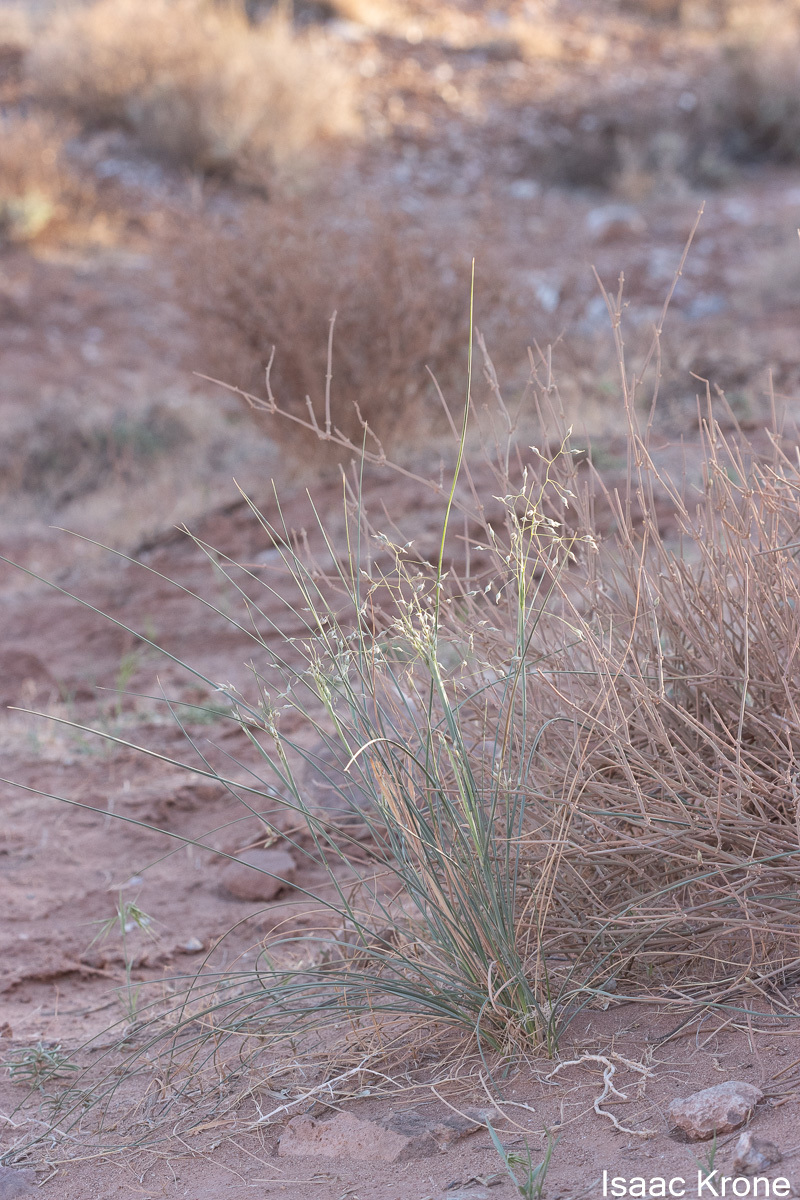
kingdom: Plantae
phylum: Tracheophyta
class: Liliopsida
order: Poales
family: Poaceae
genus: Eriocoma
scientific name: Eriocoma hymenoides
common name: Indian mountain ricegrass
